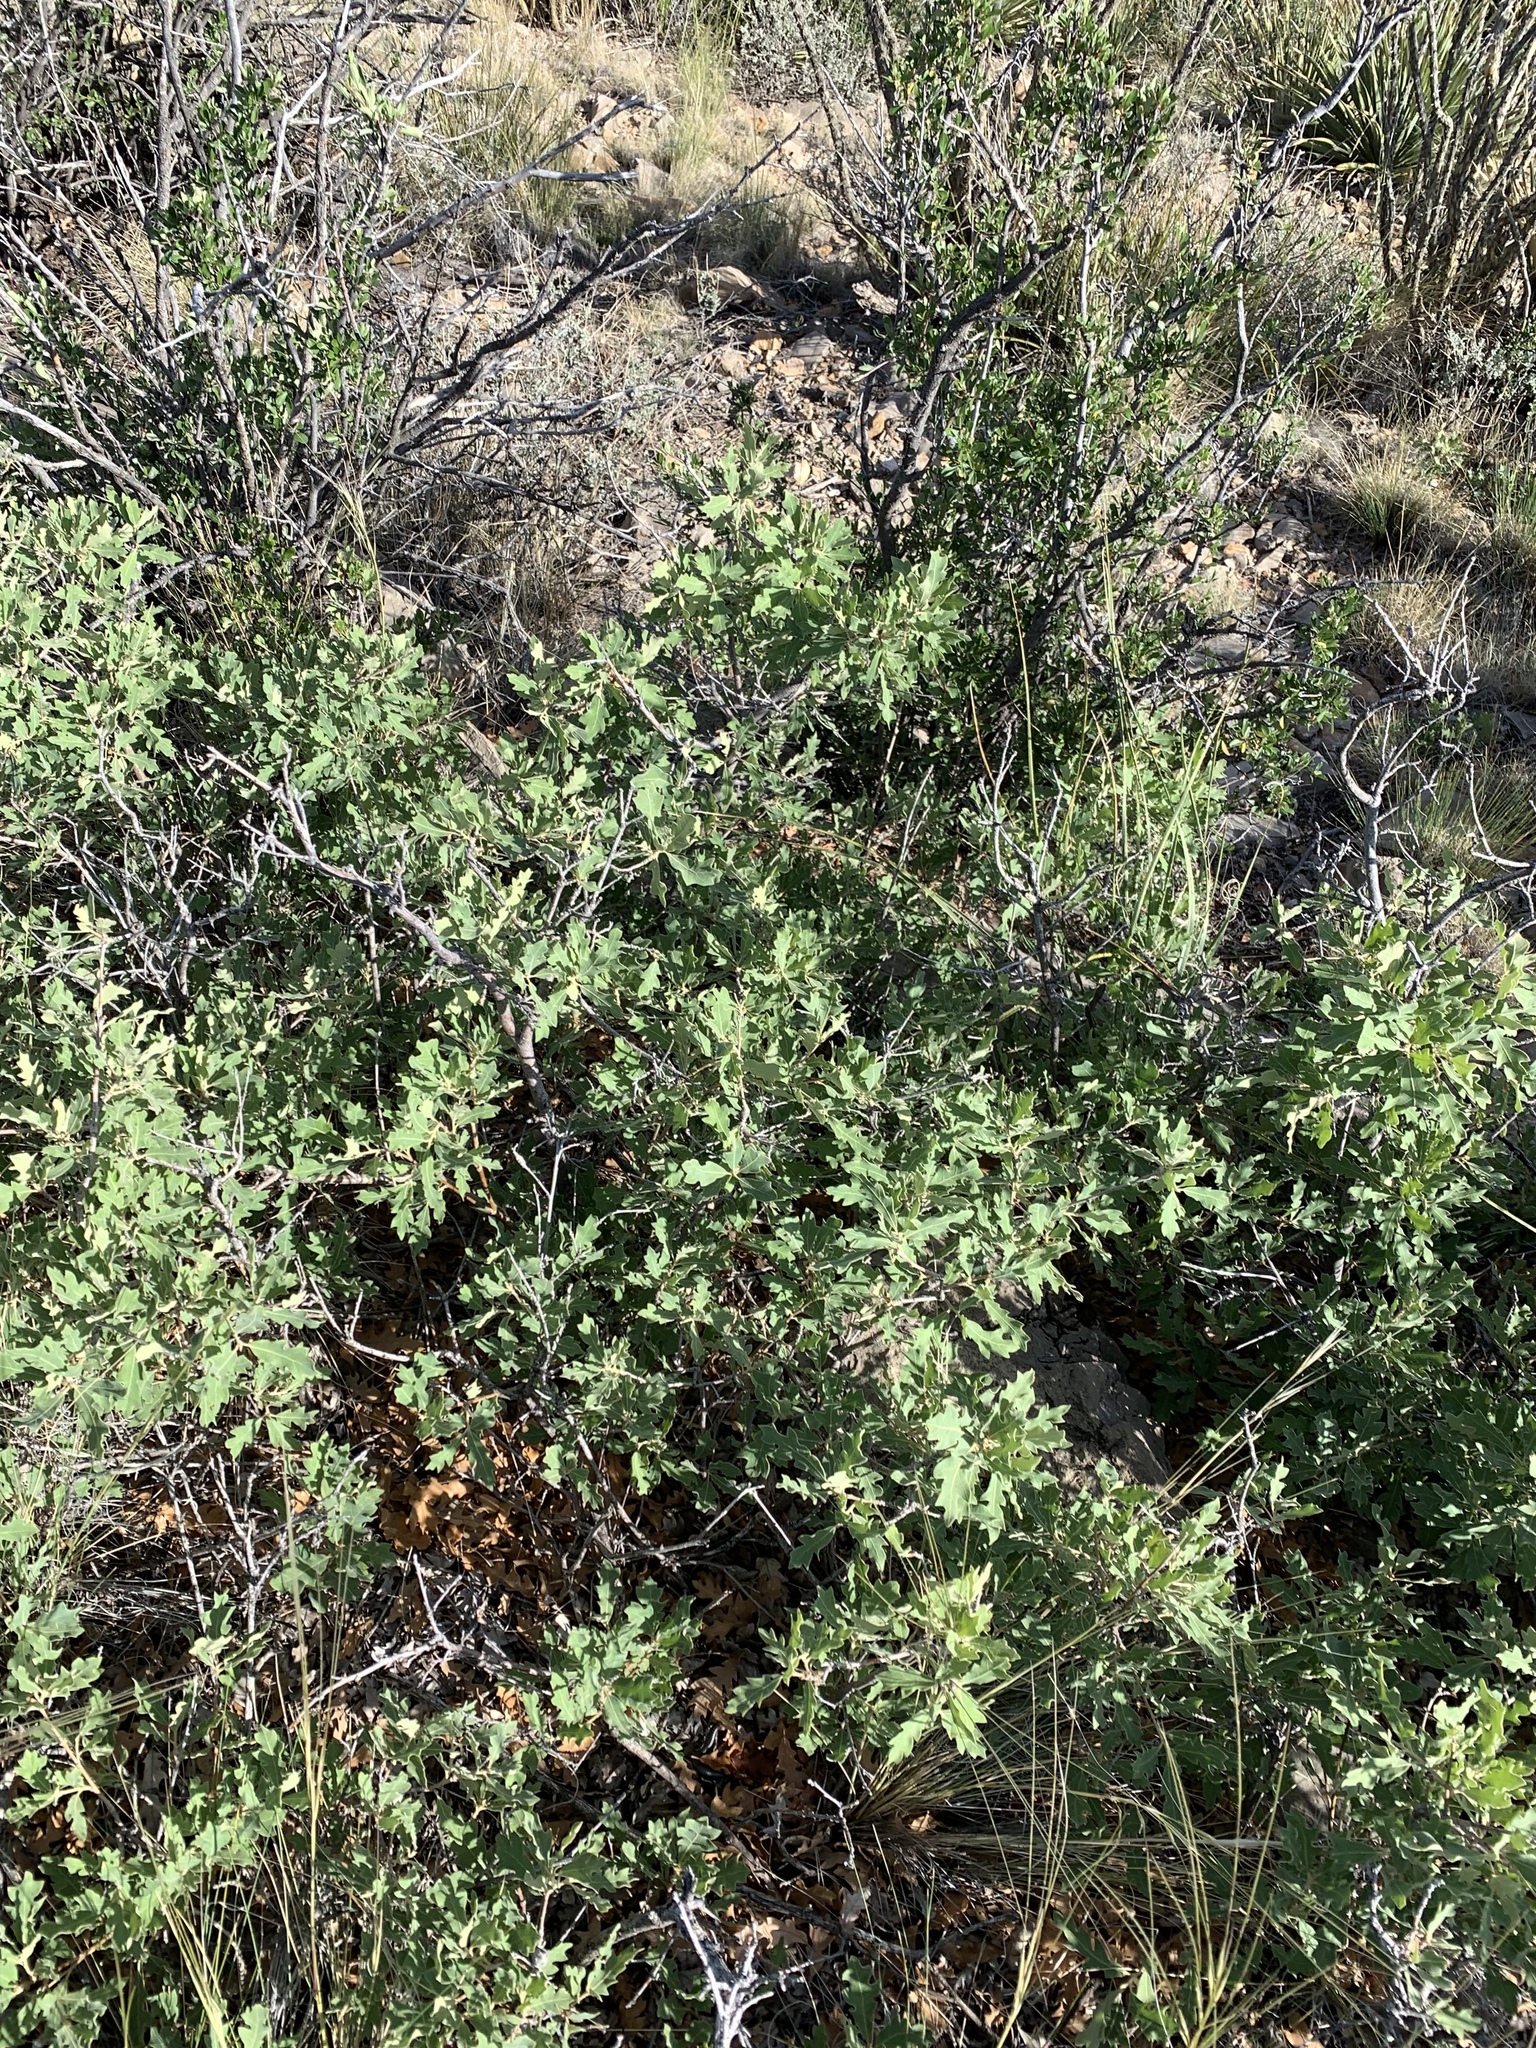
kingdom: Plantae
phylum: Tracheophyta
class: Magnoliopsida
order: Fagales
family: Fagaceae
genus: Quercus
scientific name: Quercus undulata
